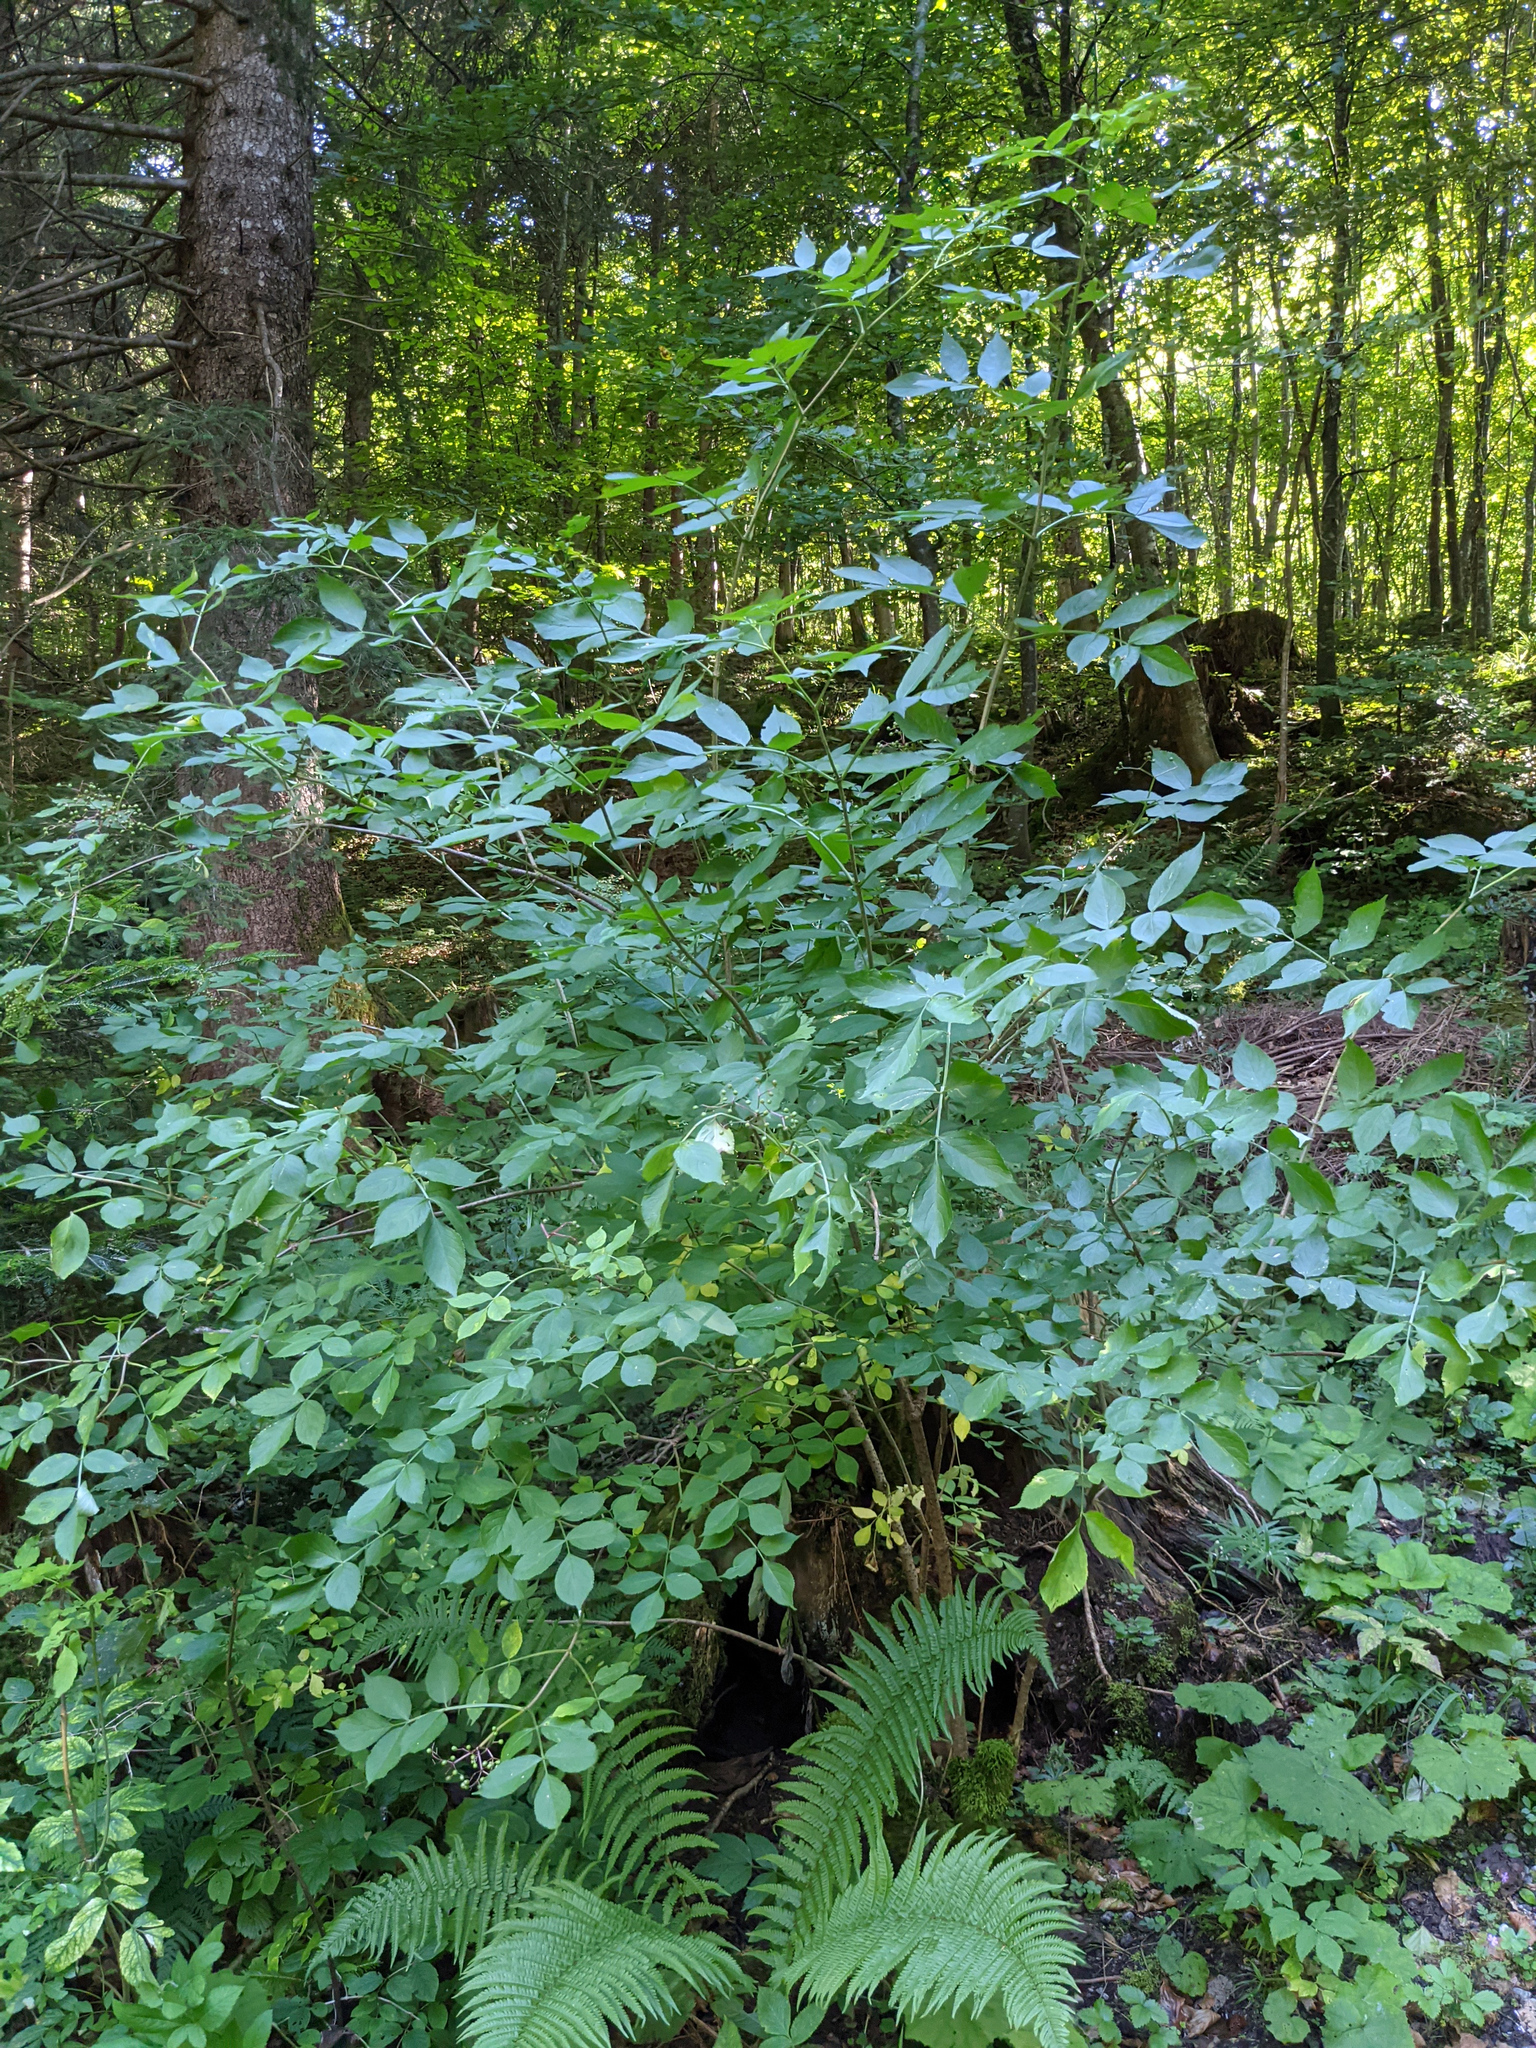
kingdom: Plantae
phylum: Tracheophyta
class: Magnoliopsida
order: Dipsacales
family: Viburnaceae
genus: Sambucus
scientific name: Sambucus nigra
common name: Elder
